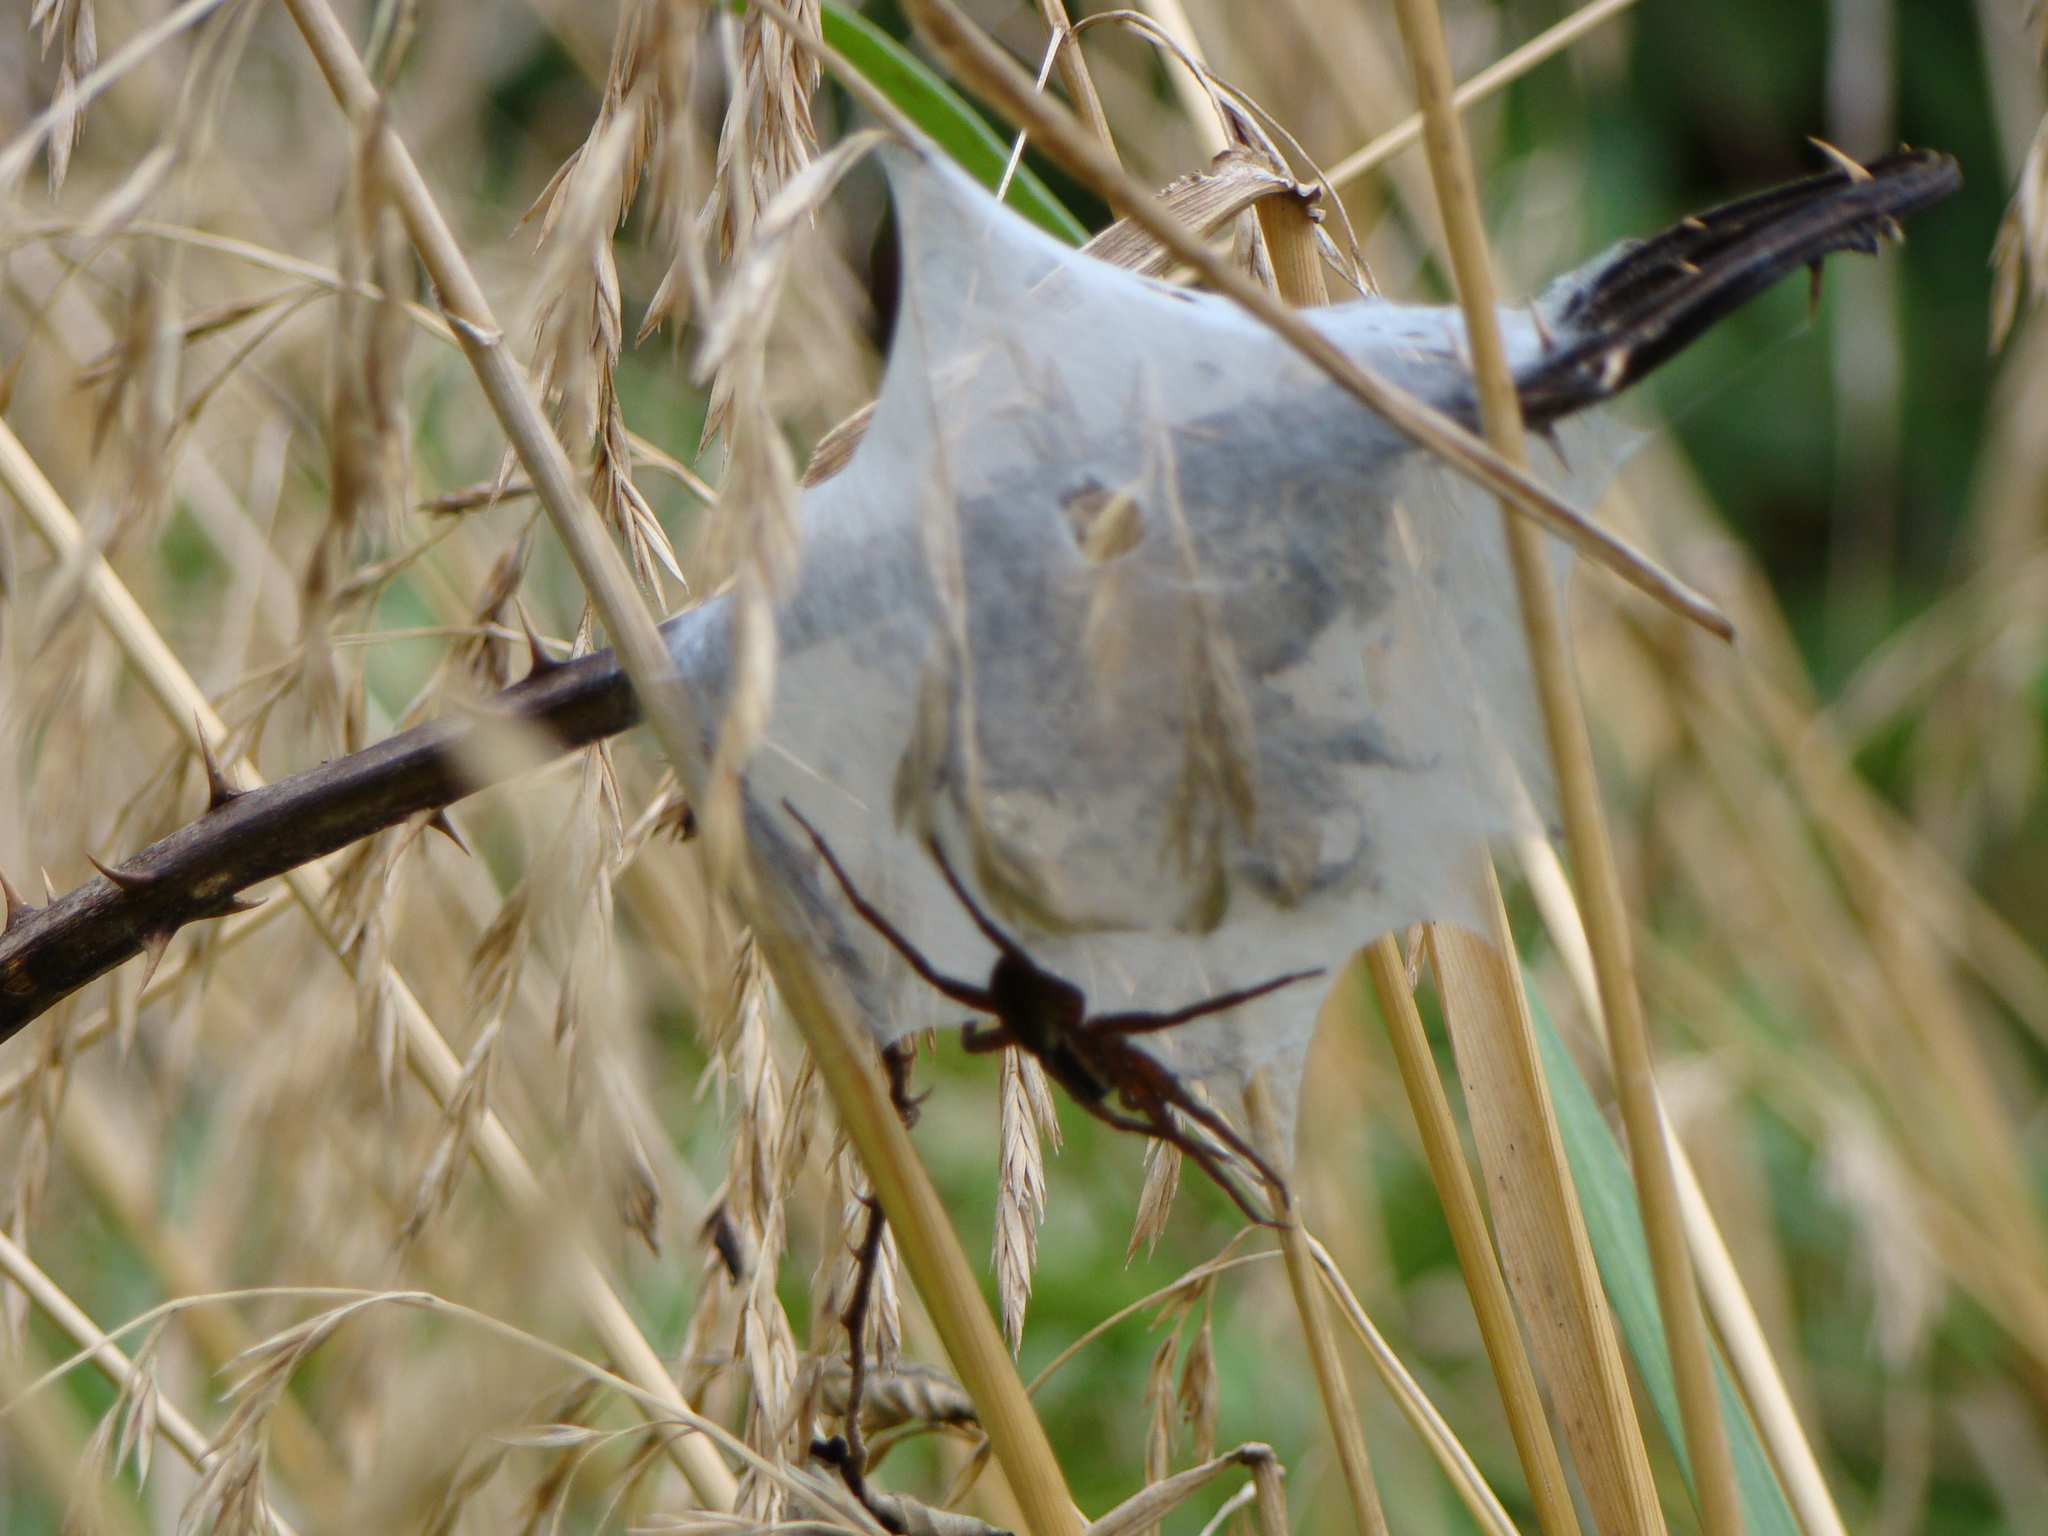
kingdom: Animalia
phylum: Arthropoda
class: Arachnida
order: Araneae
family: Pisauridae
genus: Dolomedes
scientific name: Dolomedes minor
